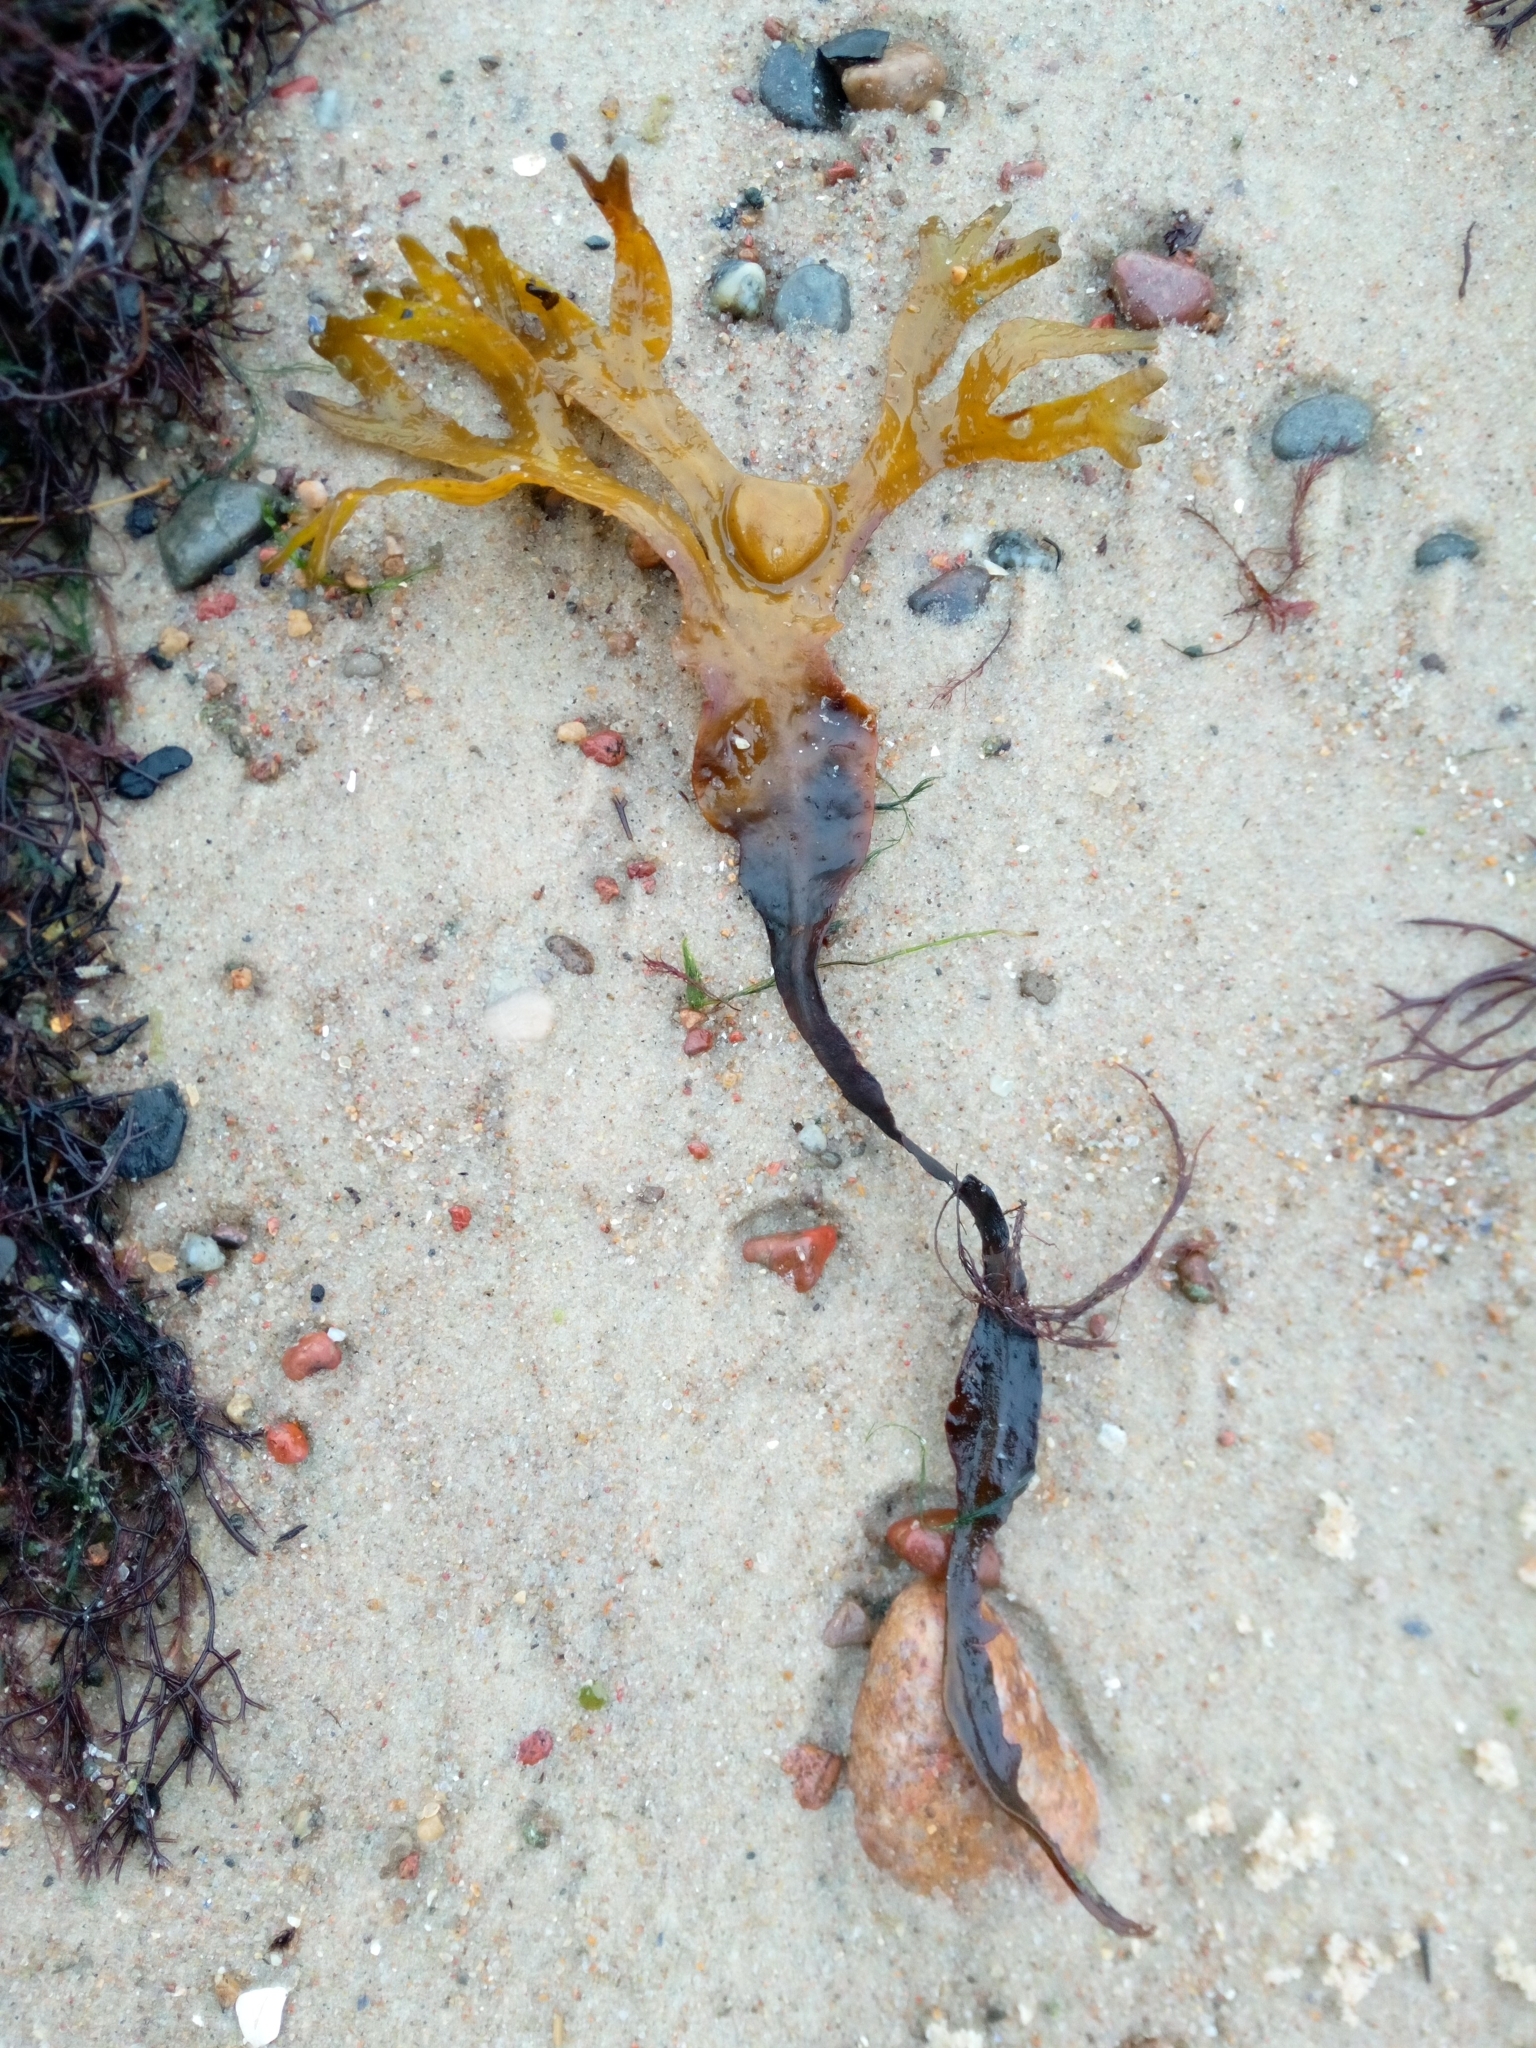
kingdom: Chromista
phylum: Ochrophyta
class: Phaeophyceae
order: Fucales
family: Fucaceae
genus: Fucus
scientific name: Fucus vesiculosus
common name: Bladder wrack
